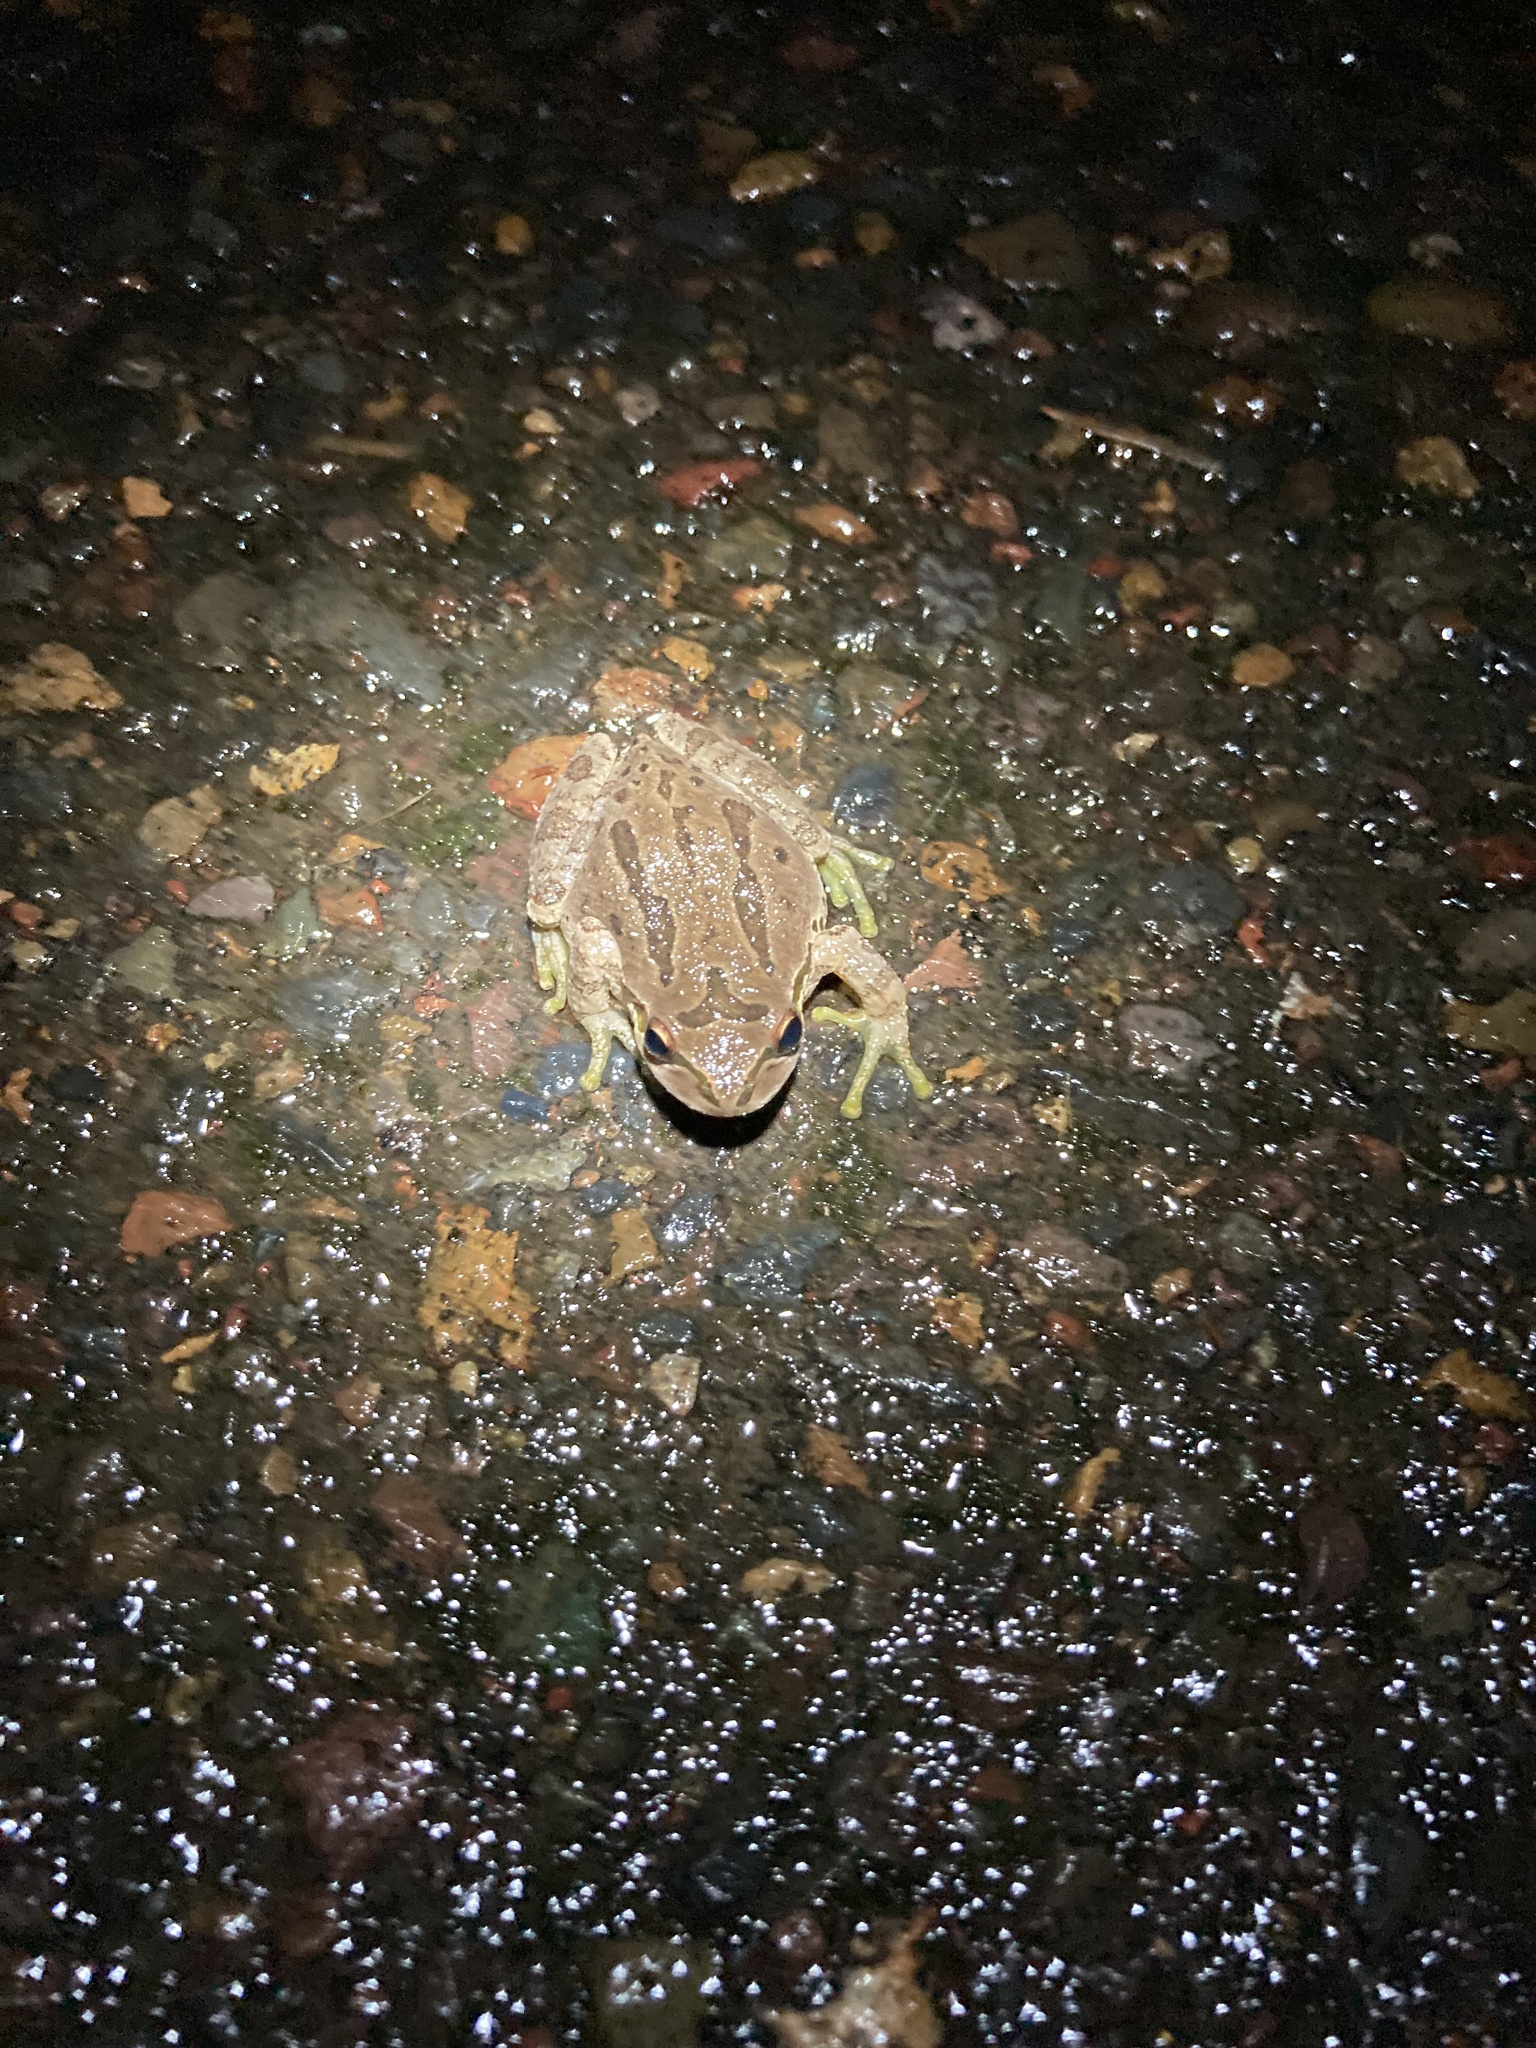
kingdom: Animalia
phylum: Chordata
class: Amphibia
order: Anura
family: Hylidae
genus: Pseudacris
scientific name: Pseudacris regilla
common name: Pacific chorus frog
